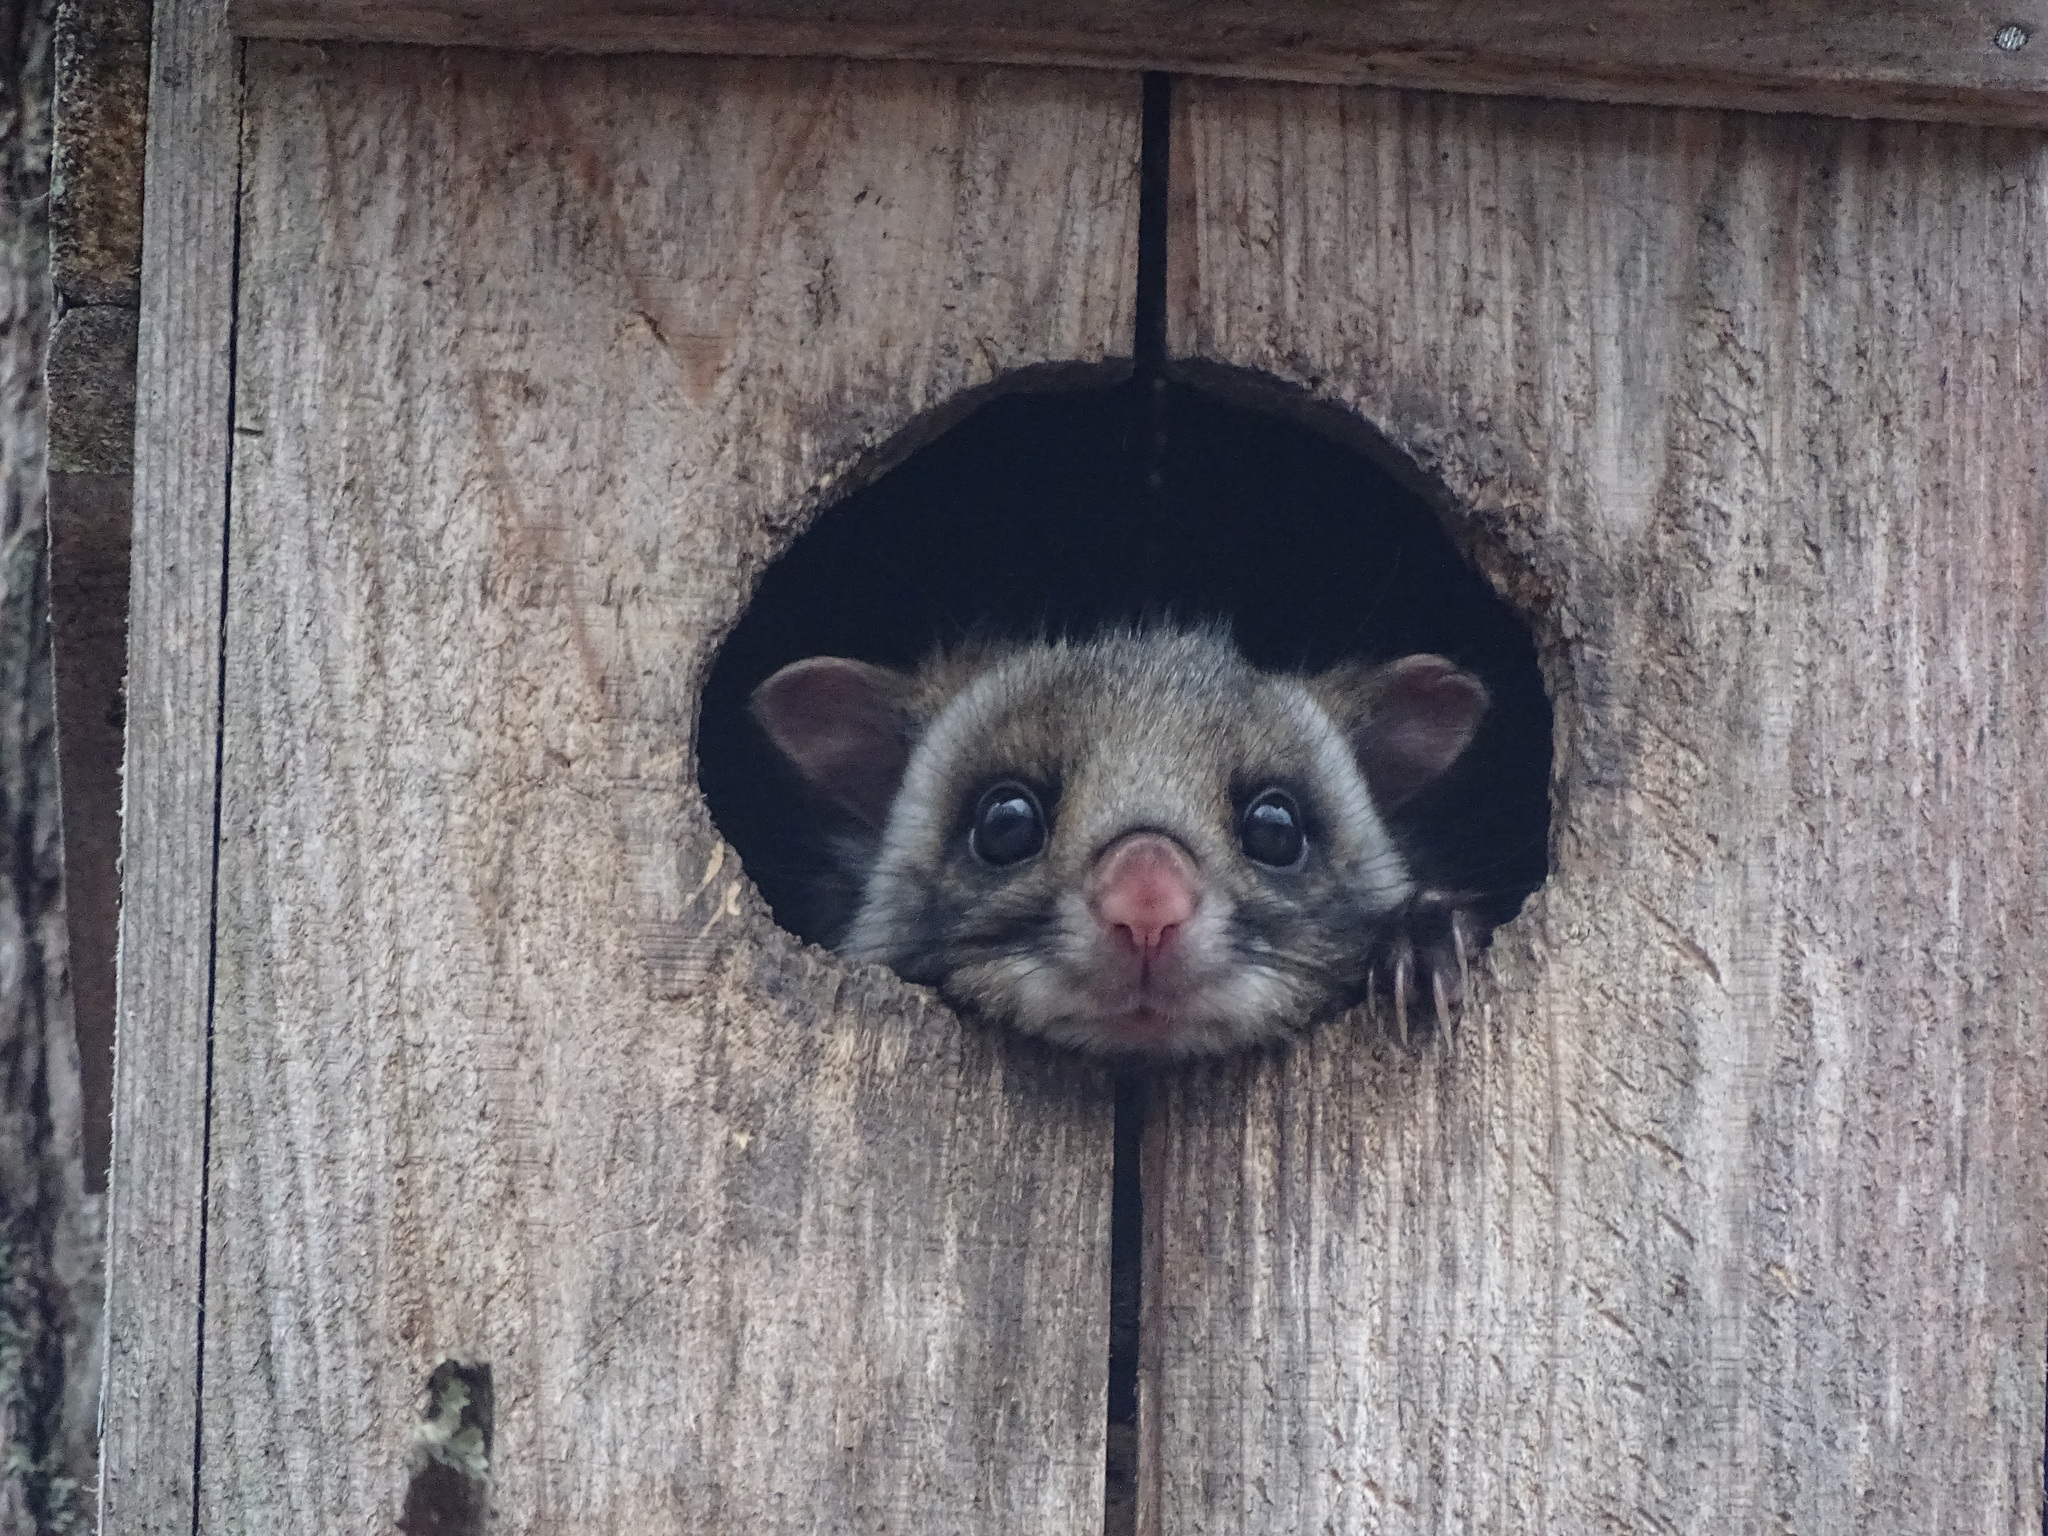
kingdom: Animalia
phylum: Chordata
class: Mammalia
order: Rodentia
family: Sciuridae
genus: Petaurista
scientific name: Petaurista leucogenys
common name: Japanese giant flying squirrel
